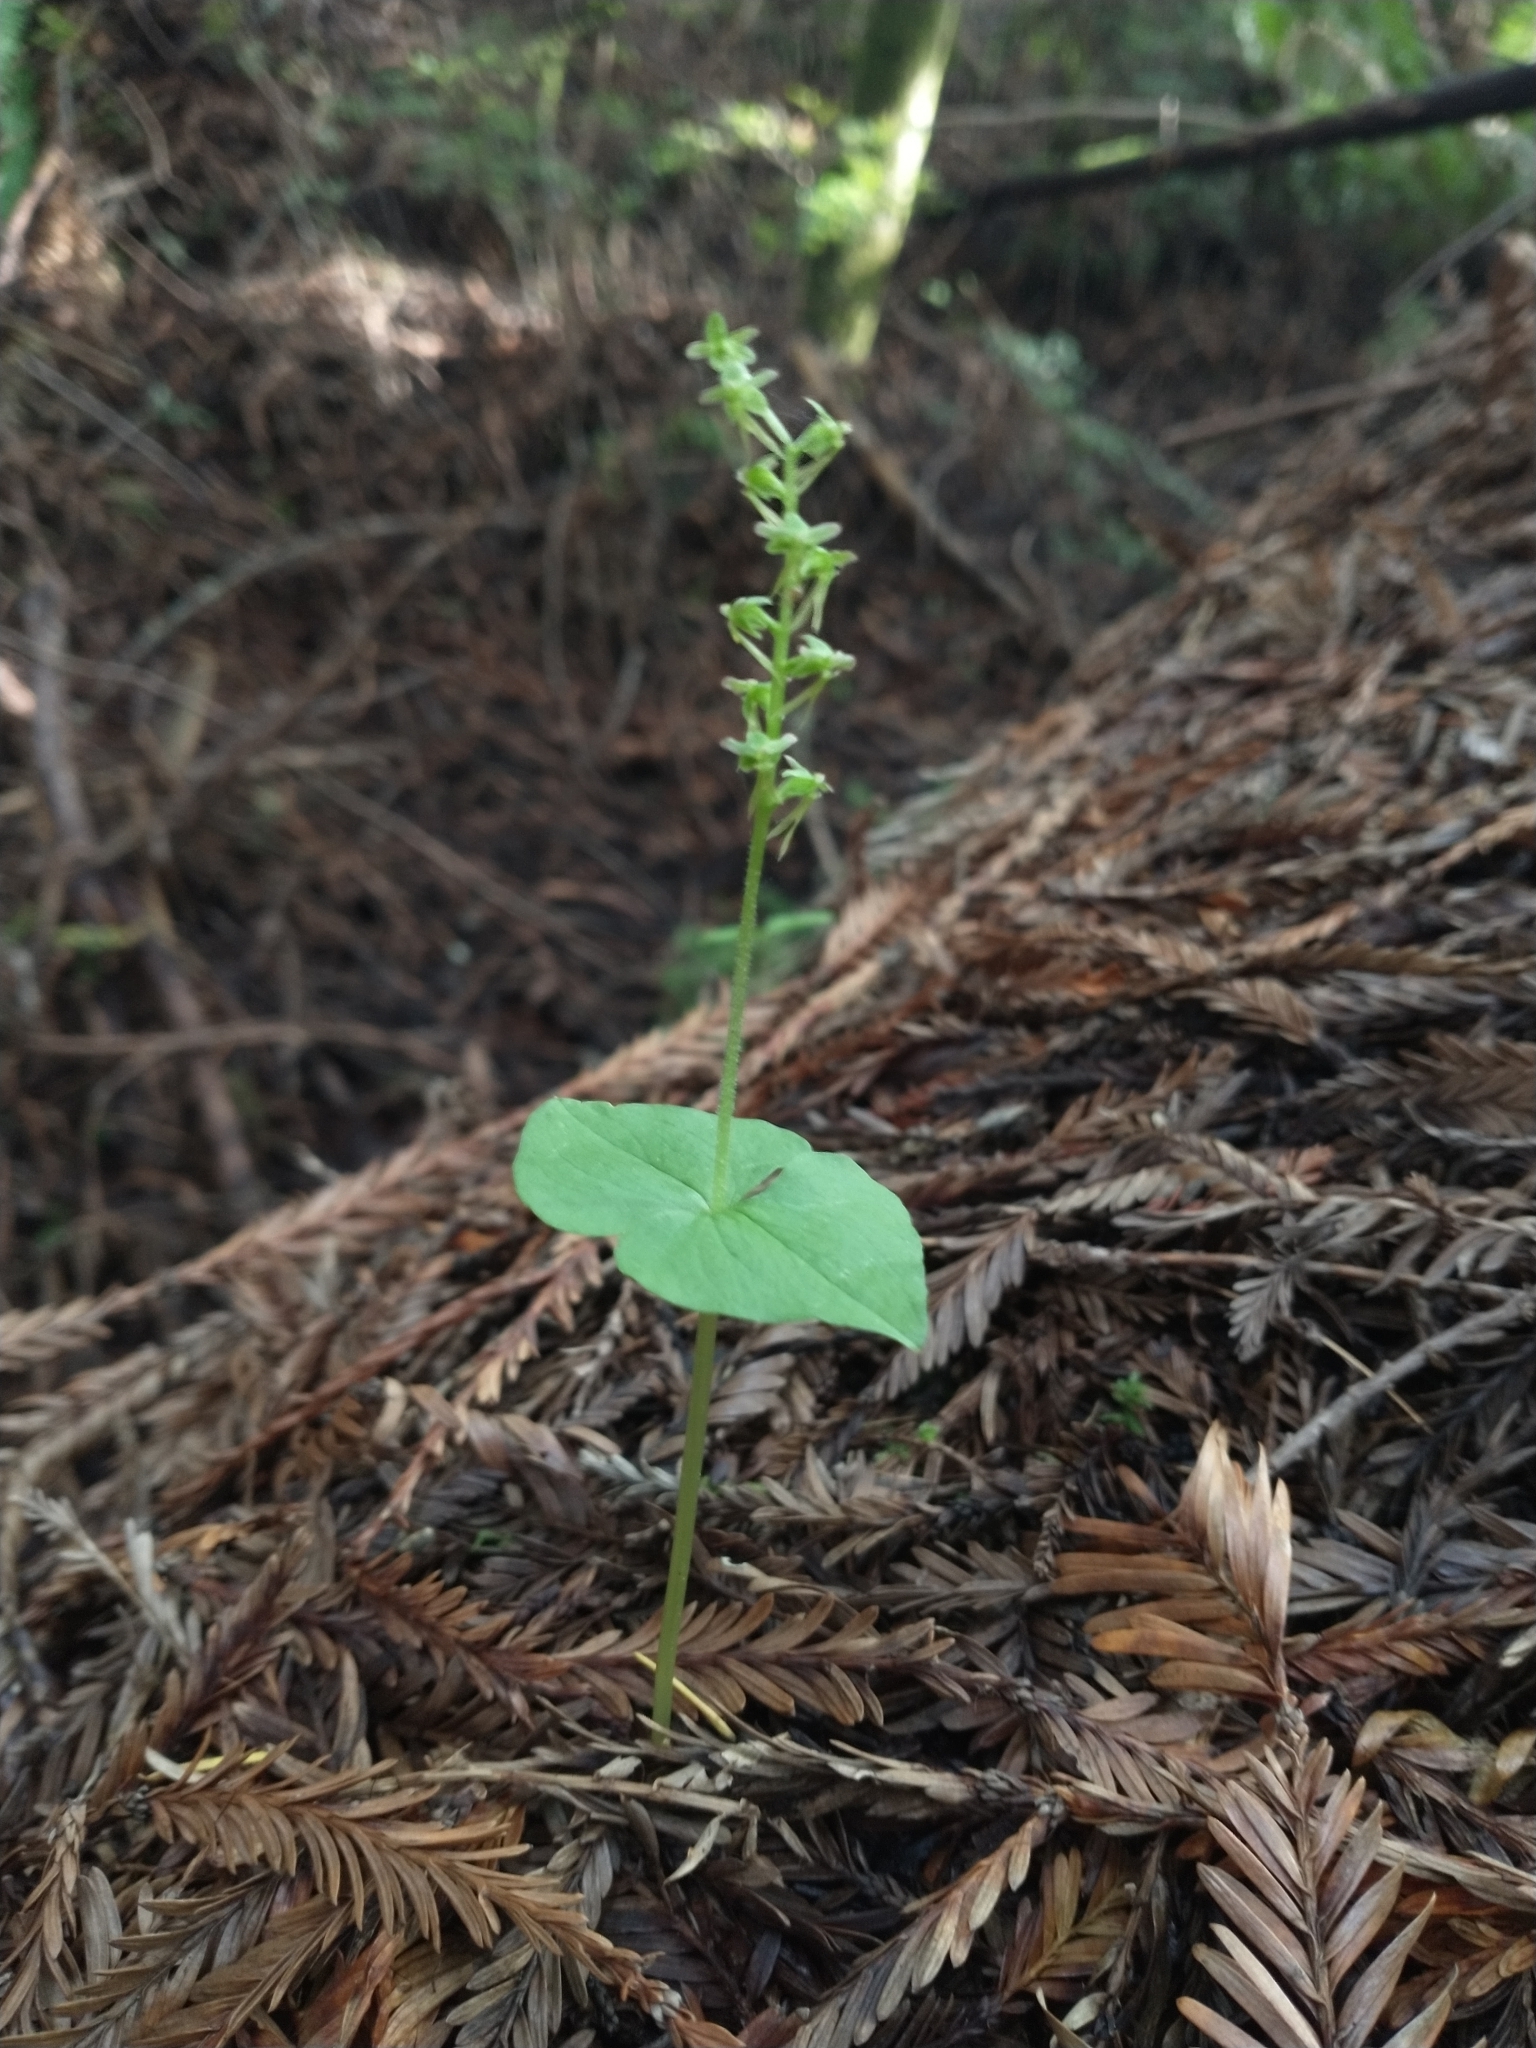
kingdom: Plantae
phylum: Tracheophyta
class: Liliopsida
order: Asparagales
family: Orchidaceae
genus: Neottia
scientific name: Neottia cordata
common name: Lesser twayblade
